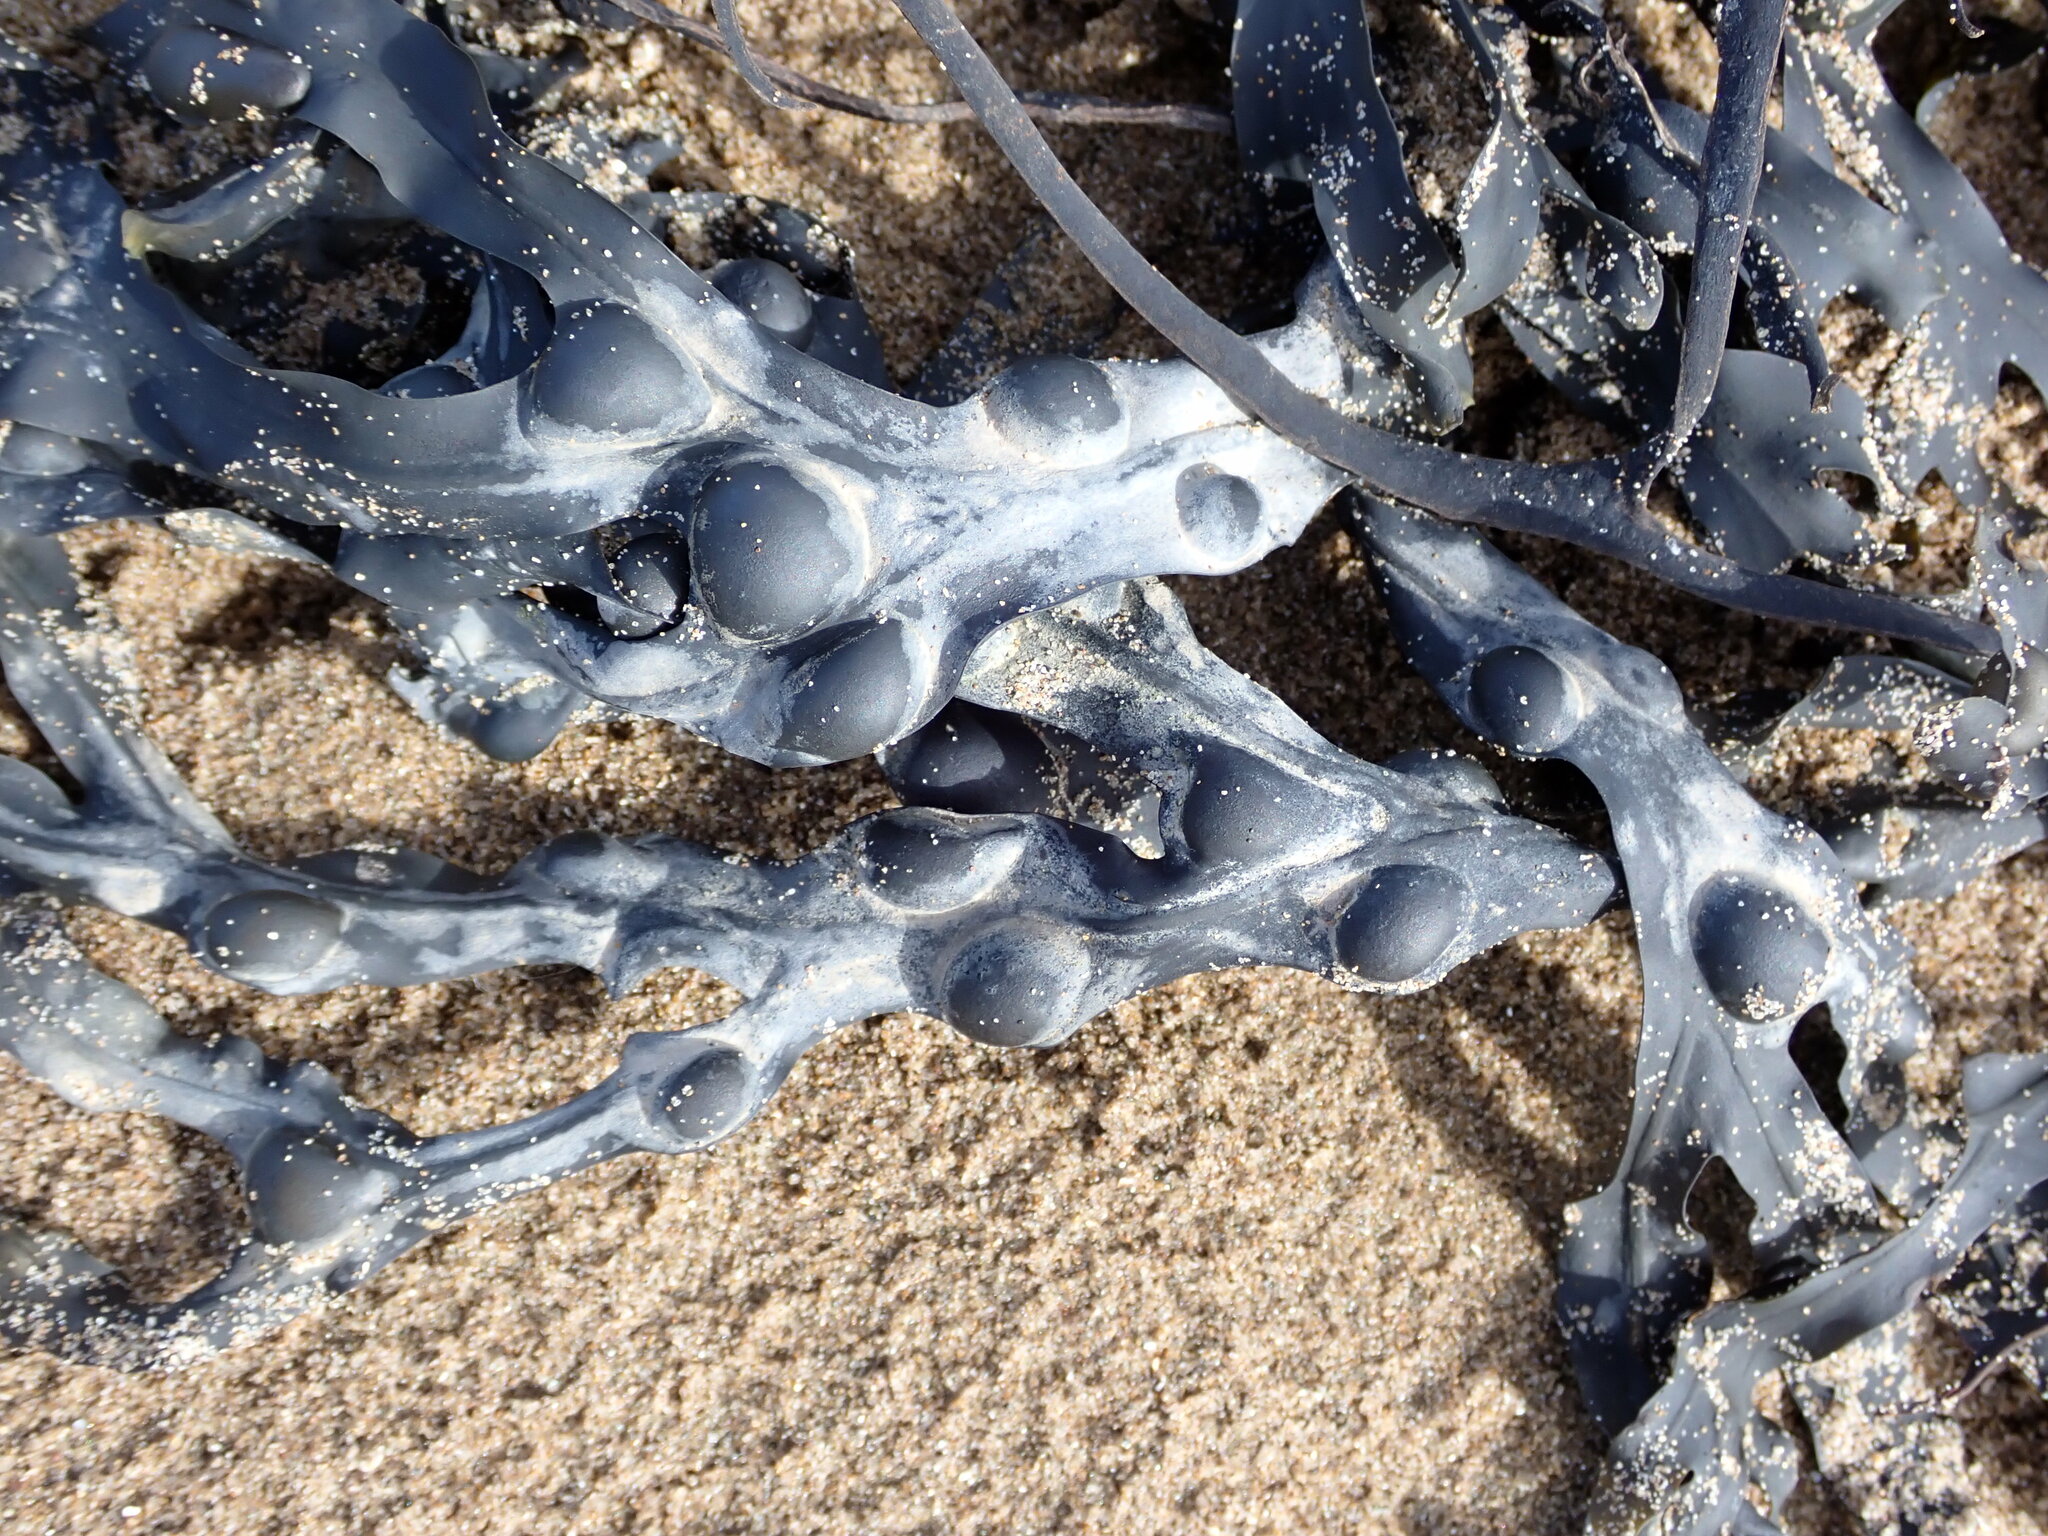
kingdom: Chromista
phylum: Ochrophyta
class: Phaeophyceae
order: Fucales
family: Fucaceae
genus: Fucus
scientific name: Fucus vesiculosus
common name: Bladder wrack
